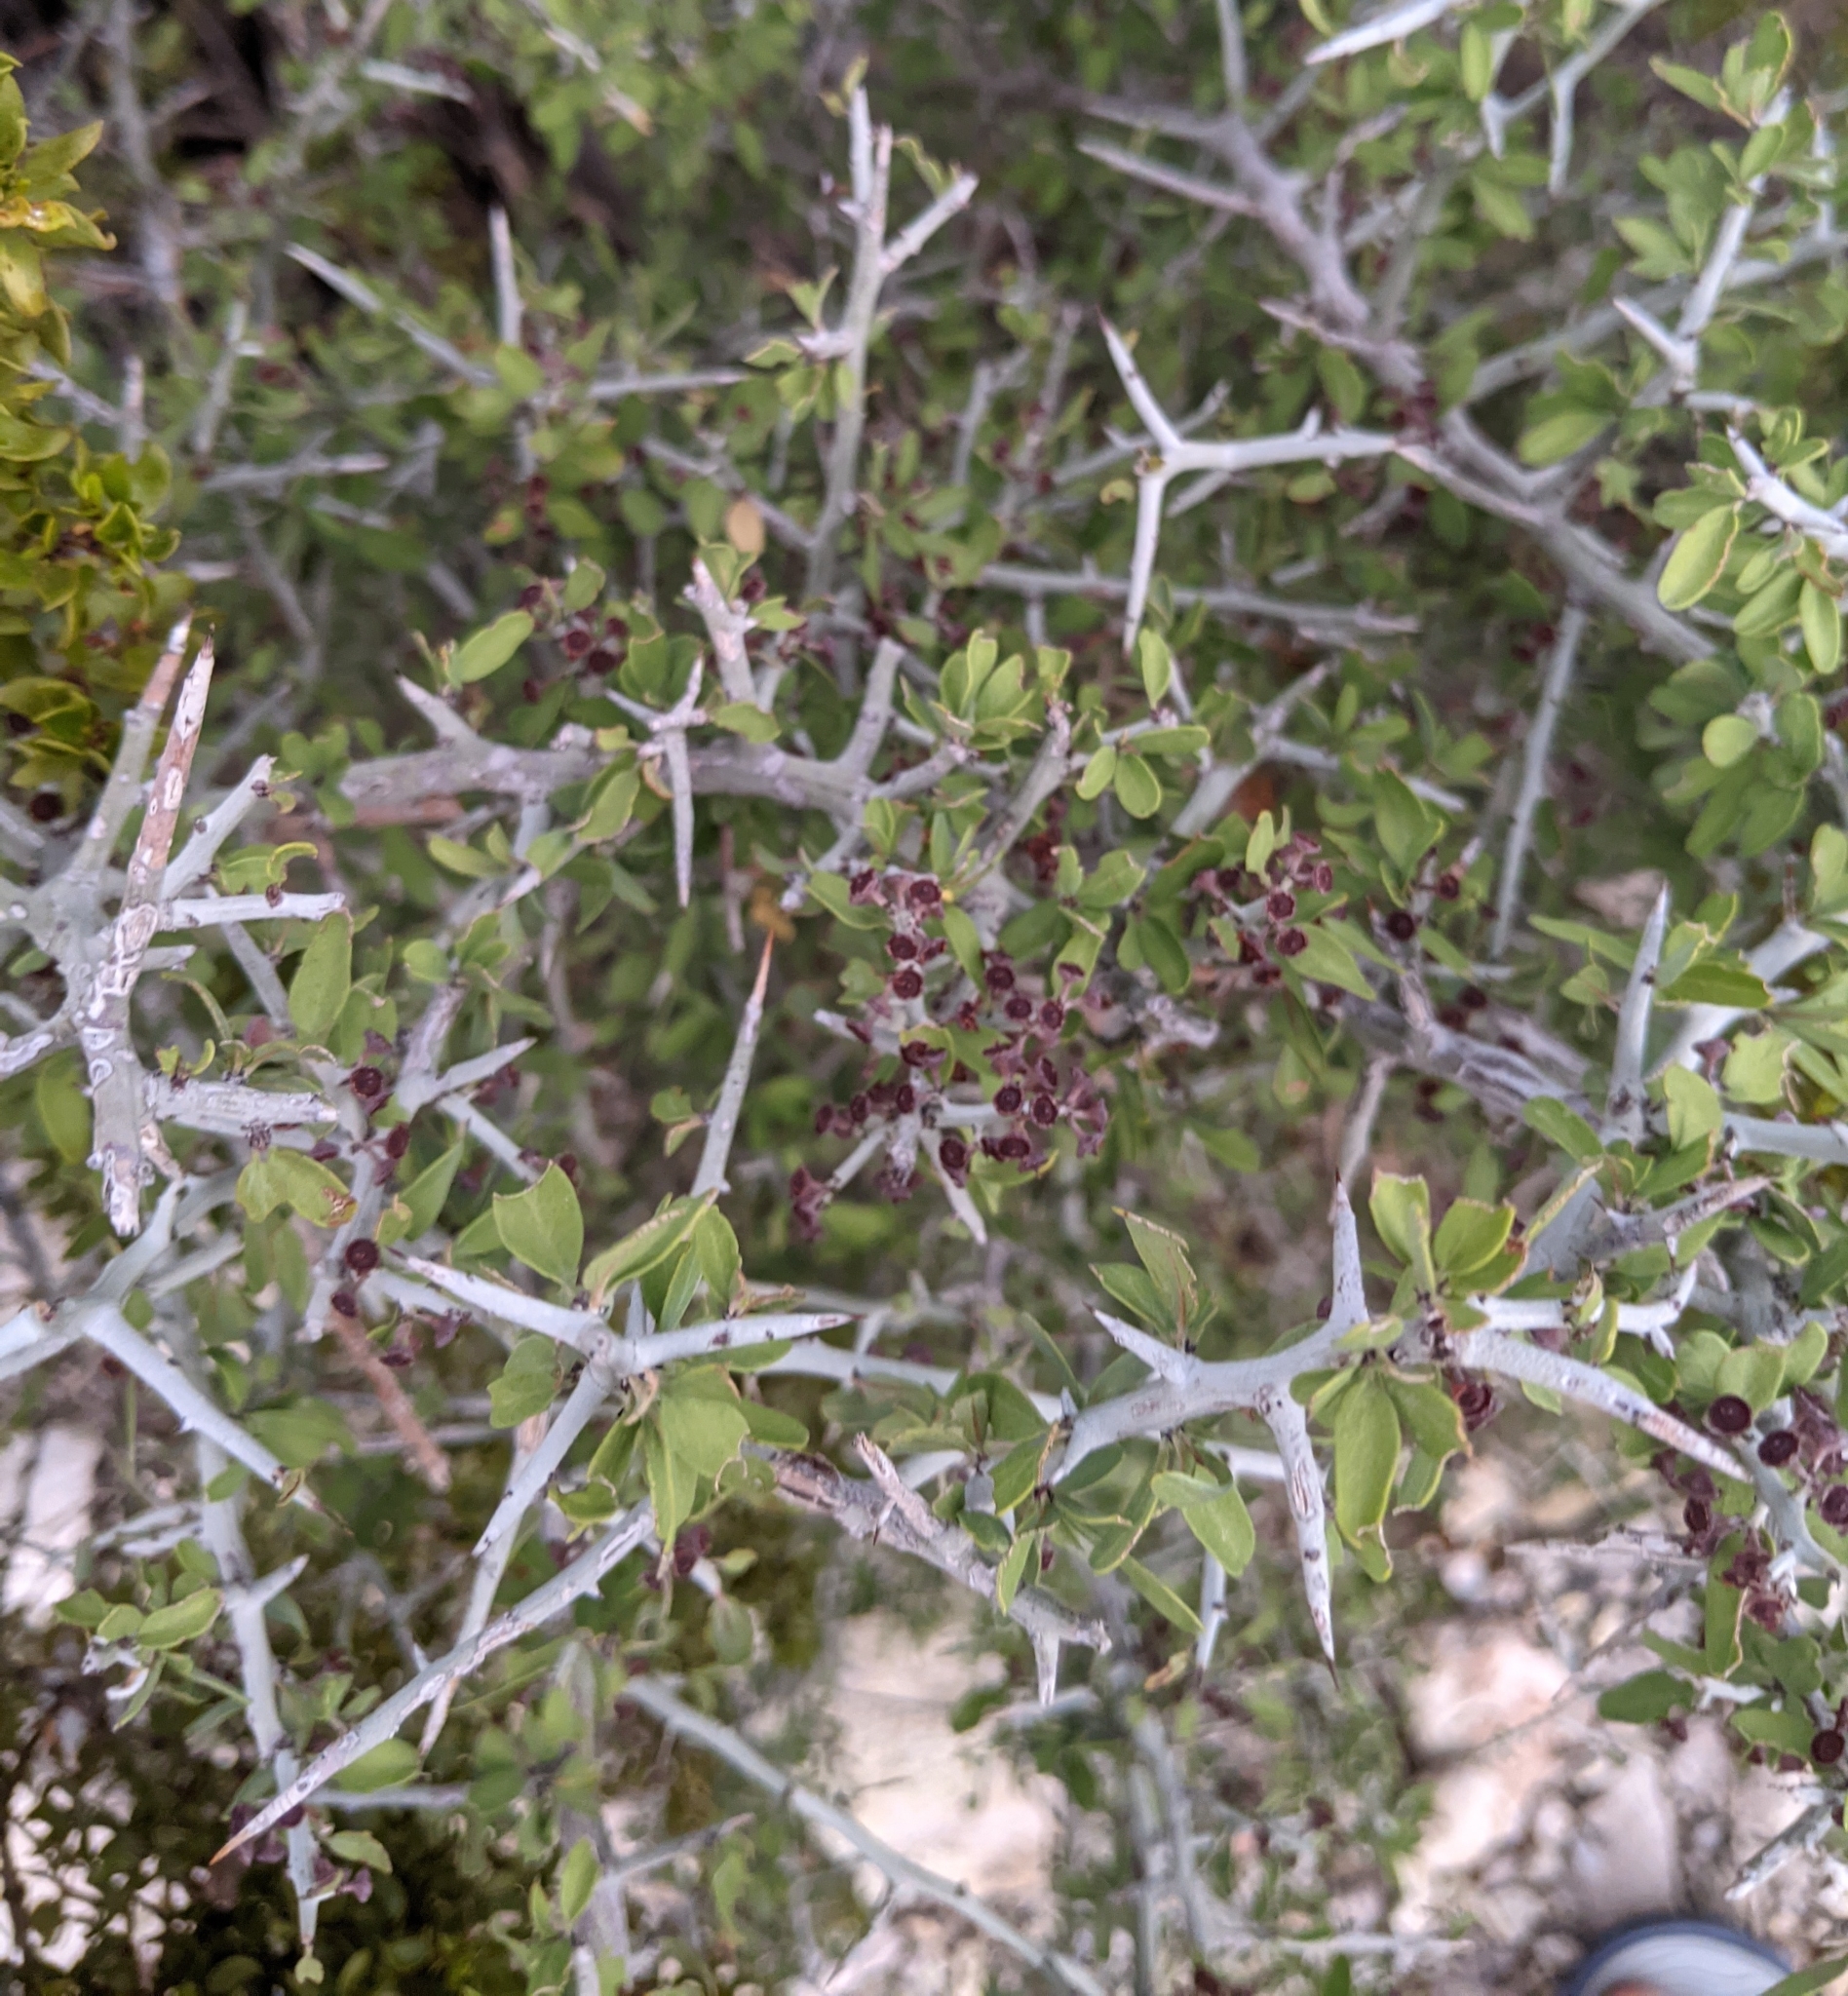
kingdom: Plantae
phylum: Tracheophyta
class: Magnoliopsida
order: Rosales
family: Rhamnaceae
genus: Sarcomphalus
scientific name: Sarcomphalus obtusifolius
